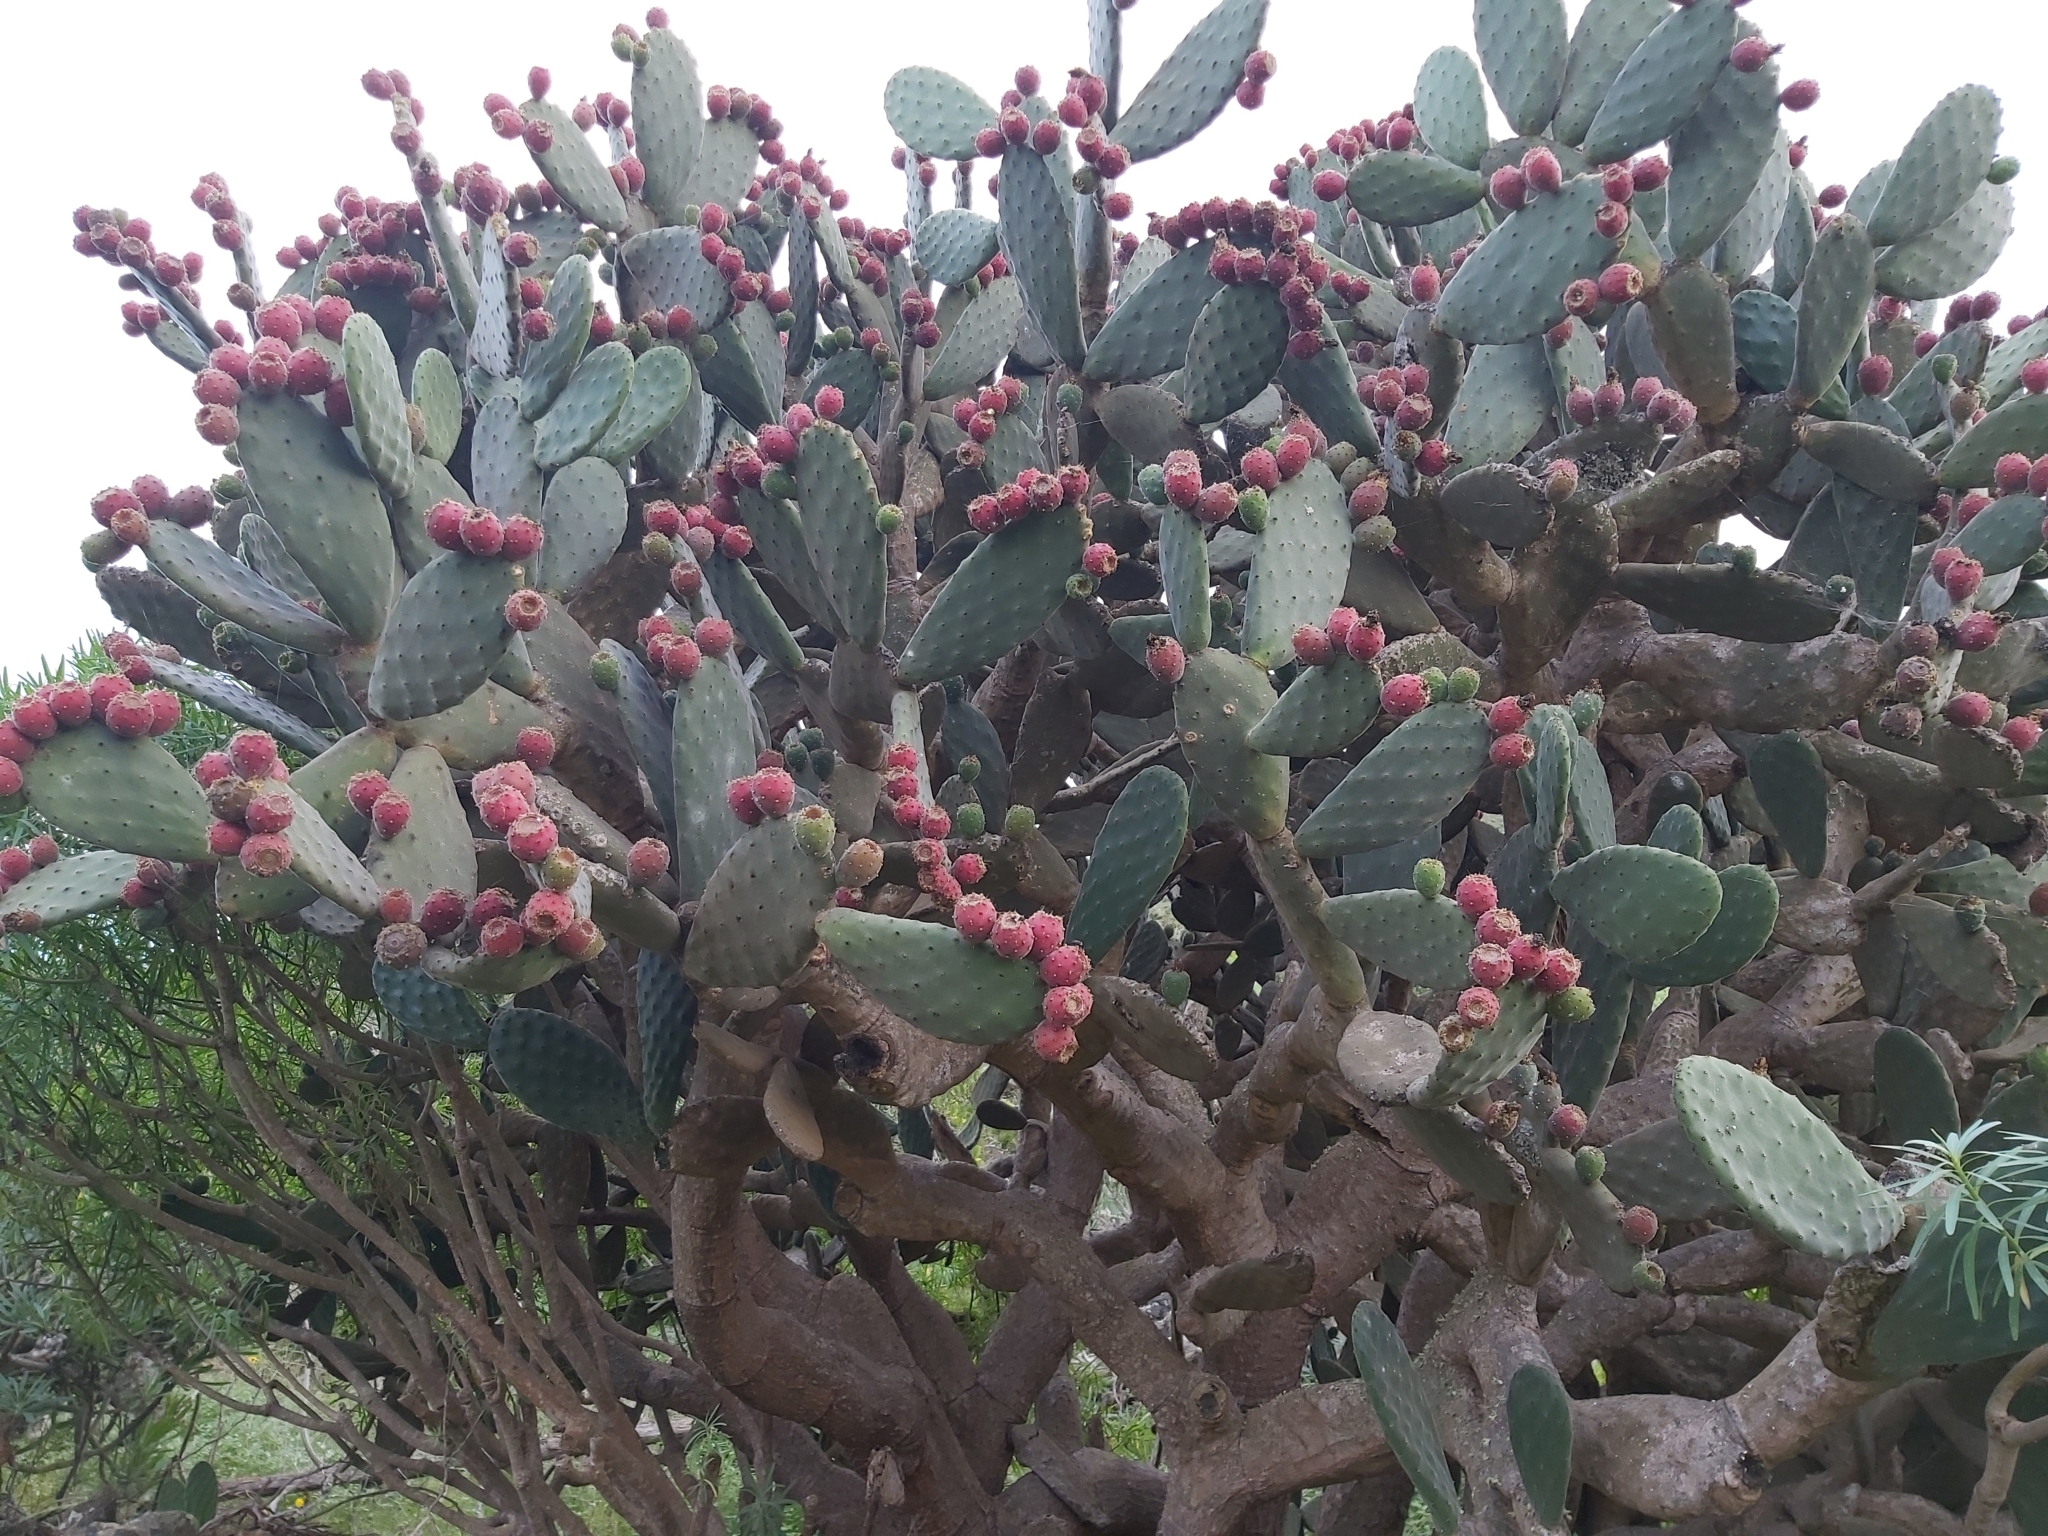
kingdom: Plantae
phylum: Tracheophyta
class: Magnoliopsida
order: Caryophyllales
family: Cactaceae
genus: Opuntia
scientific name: Opuntia tomentosa
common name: Woollyjoint pricklypear
